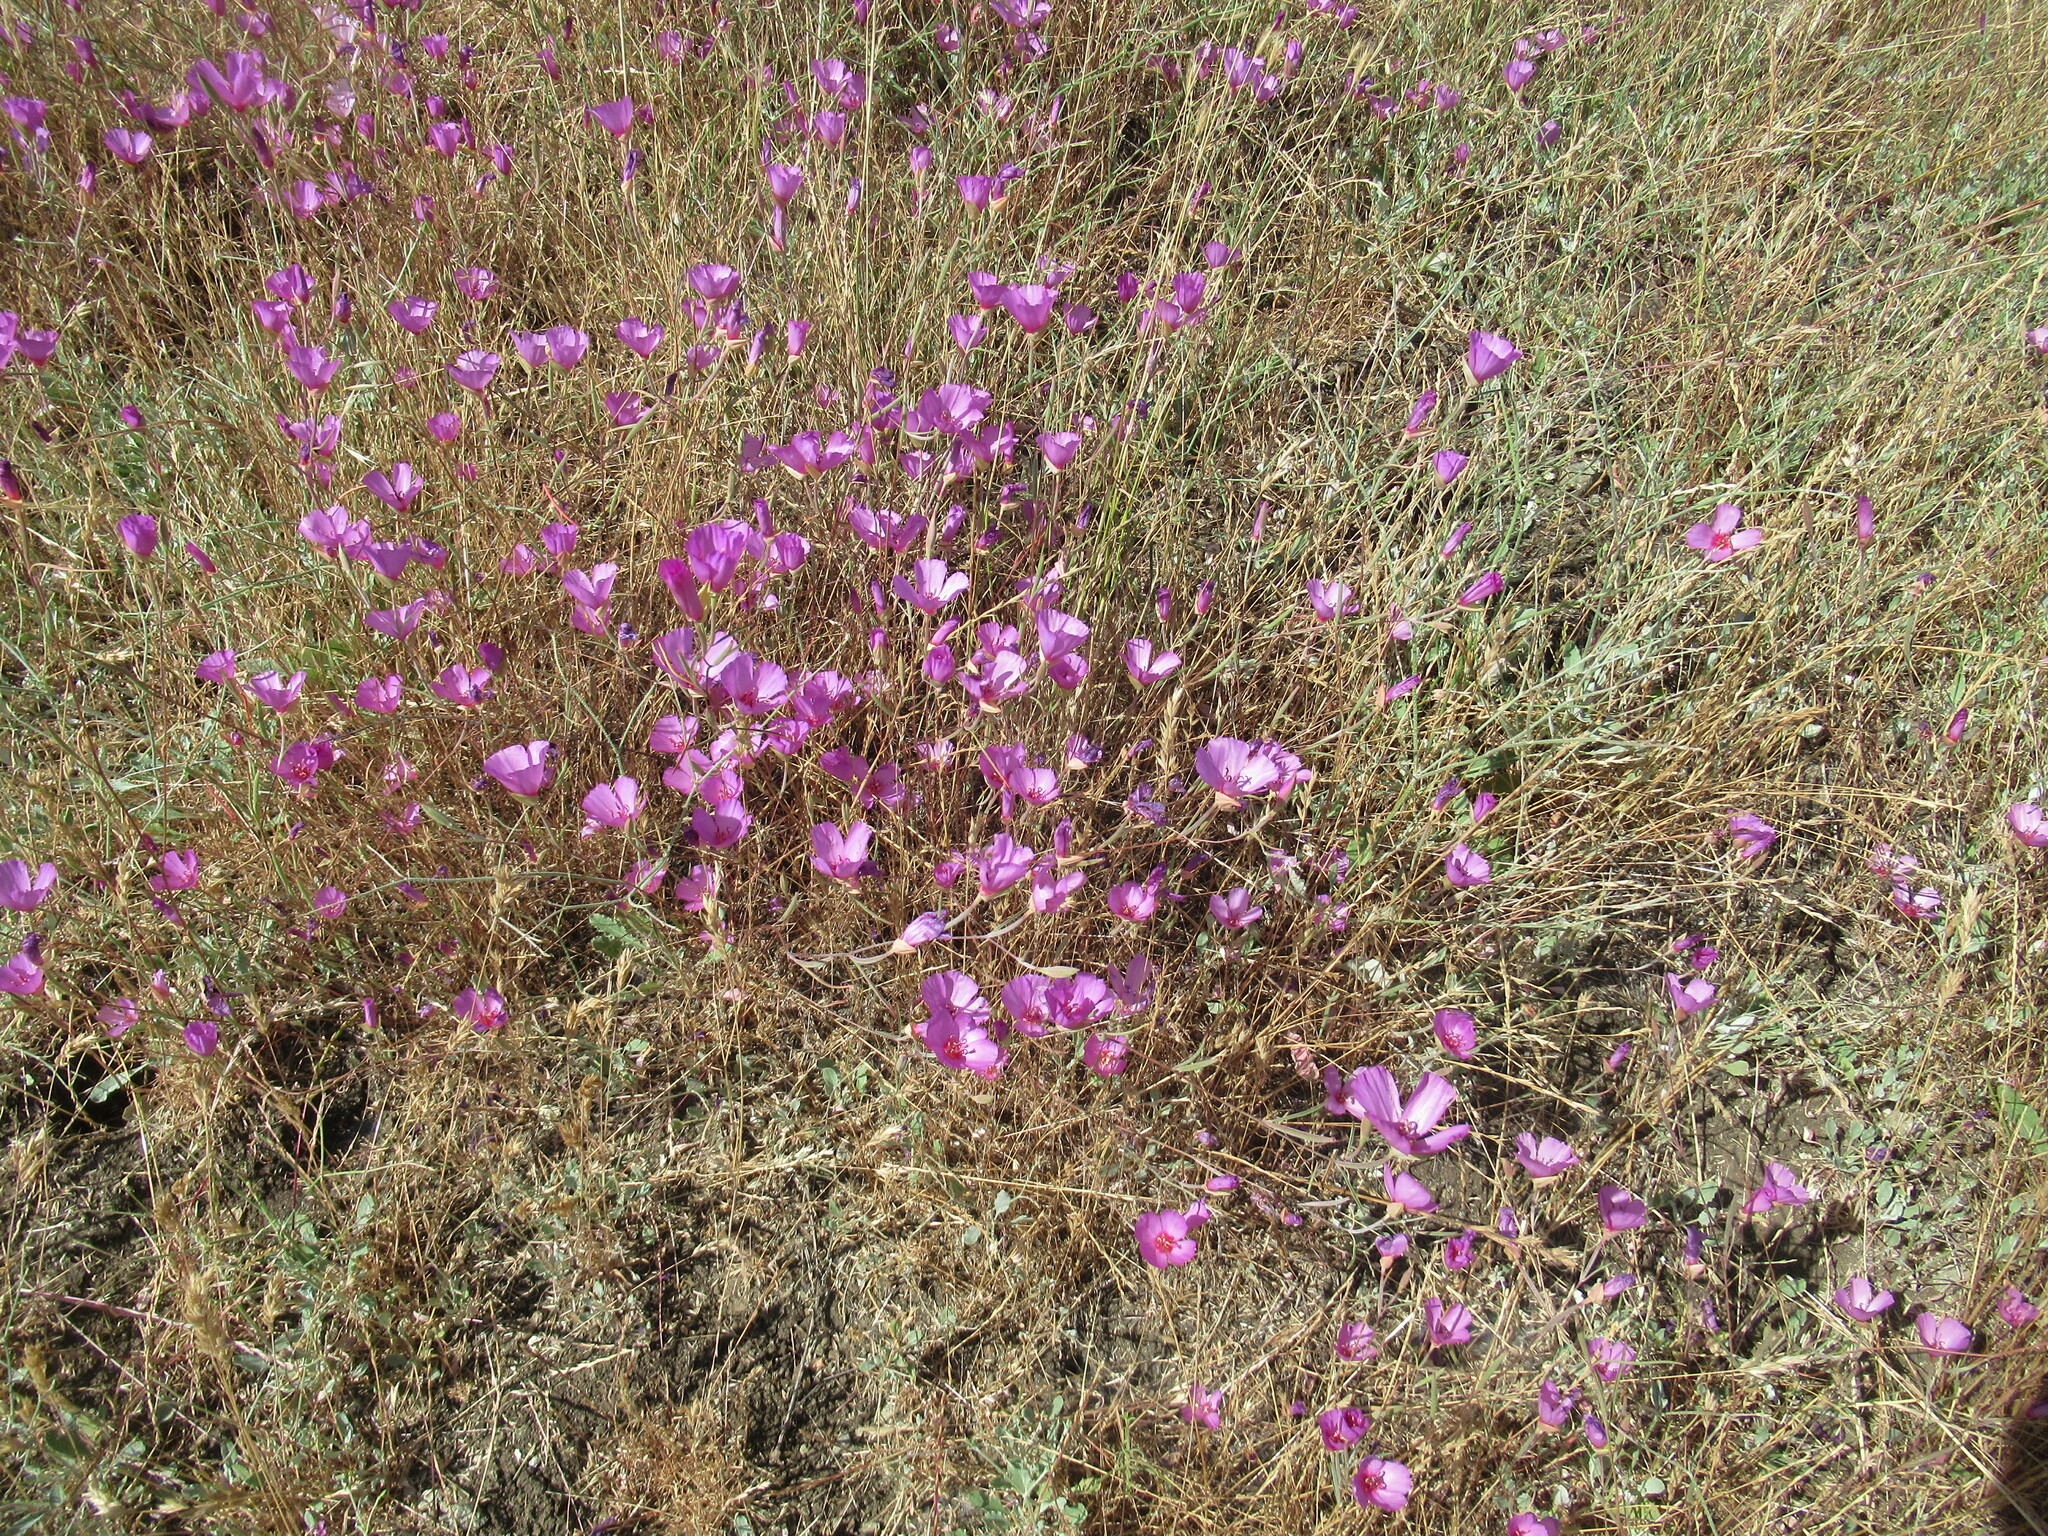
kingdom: Plantae
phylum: Tracheophyta
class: Magnoliopsida
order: Myrtales
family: Onagraceae
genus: Clarkia
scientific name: Clarkia rubicunda
